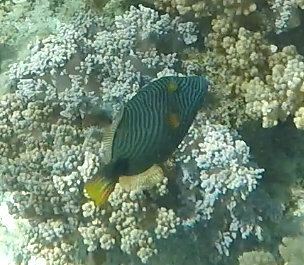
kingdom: Animalia
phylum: Chordata
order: Tetraodontiformes
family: Balistidae
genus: Balistapus
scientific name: Balistapus undulatus
